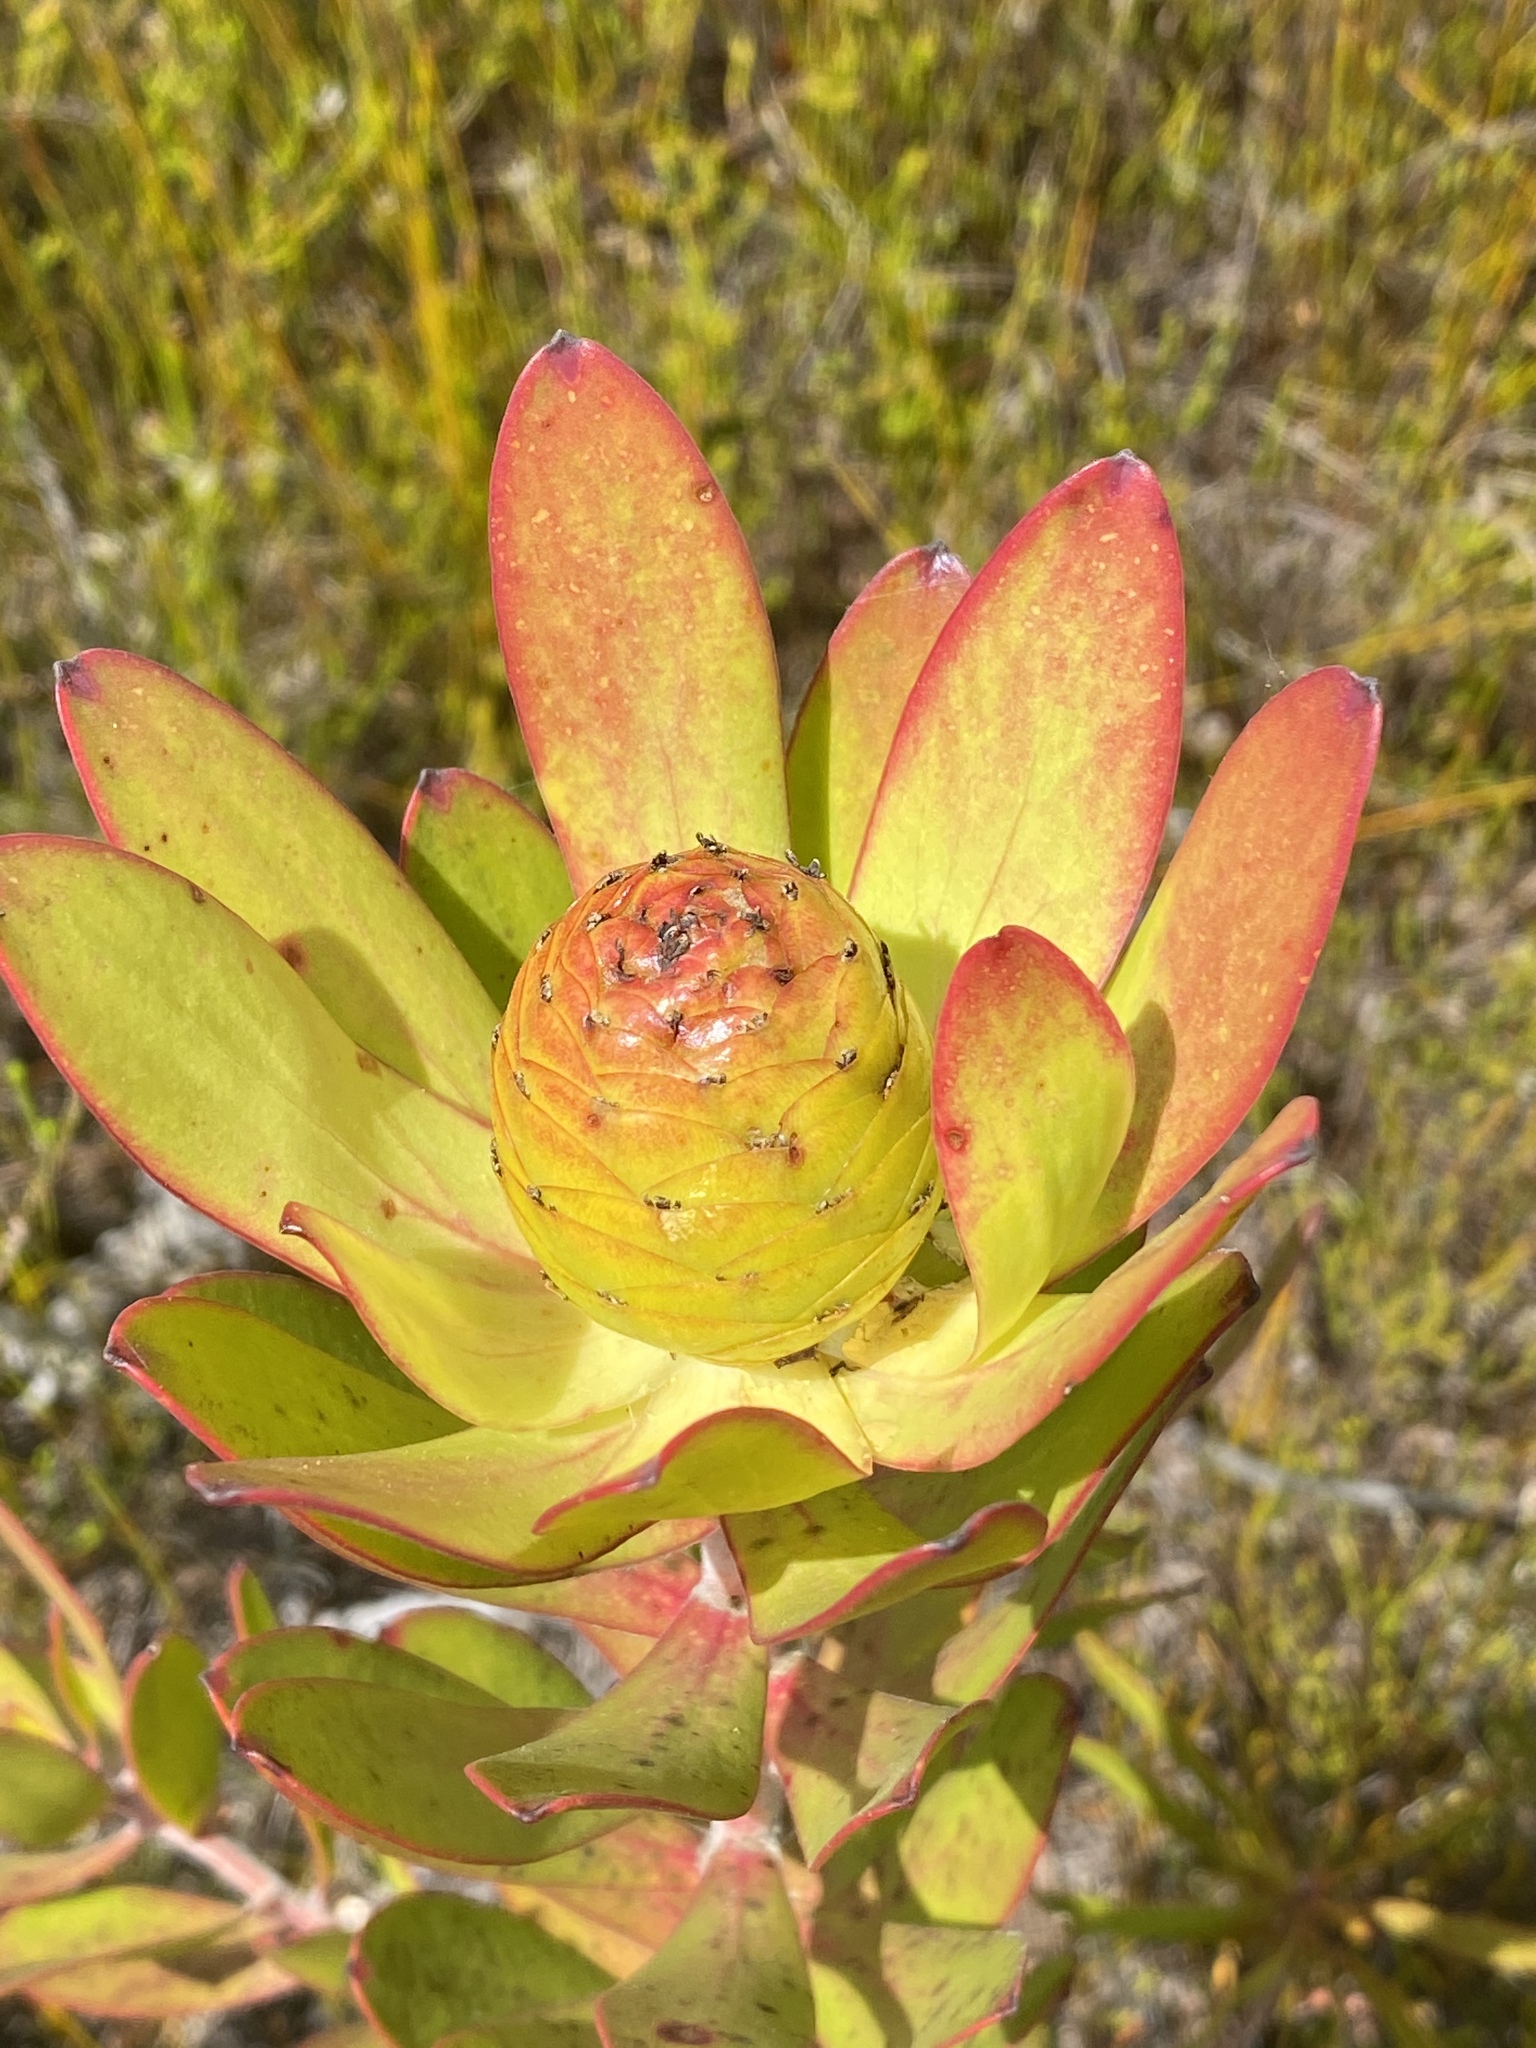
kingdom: Plantae
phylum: Tracheophyta
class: Magnoliopsida
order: Proteales
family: Proteaceae
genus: Leucadendron
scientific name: Leucadendron gandogeri
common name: Broad-leaf conebush
